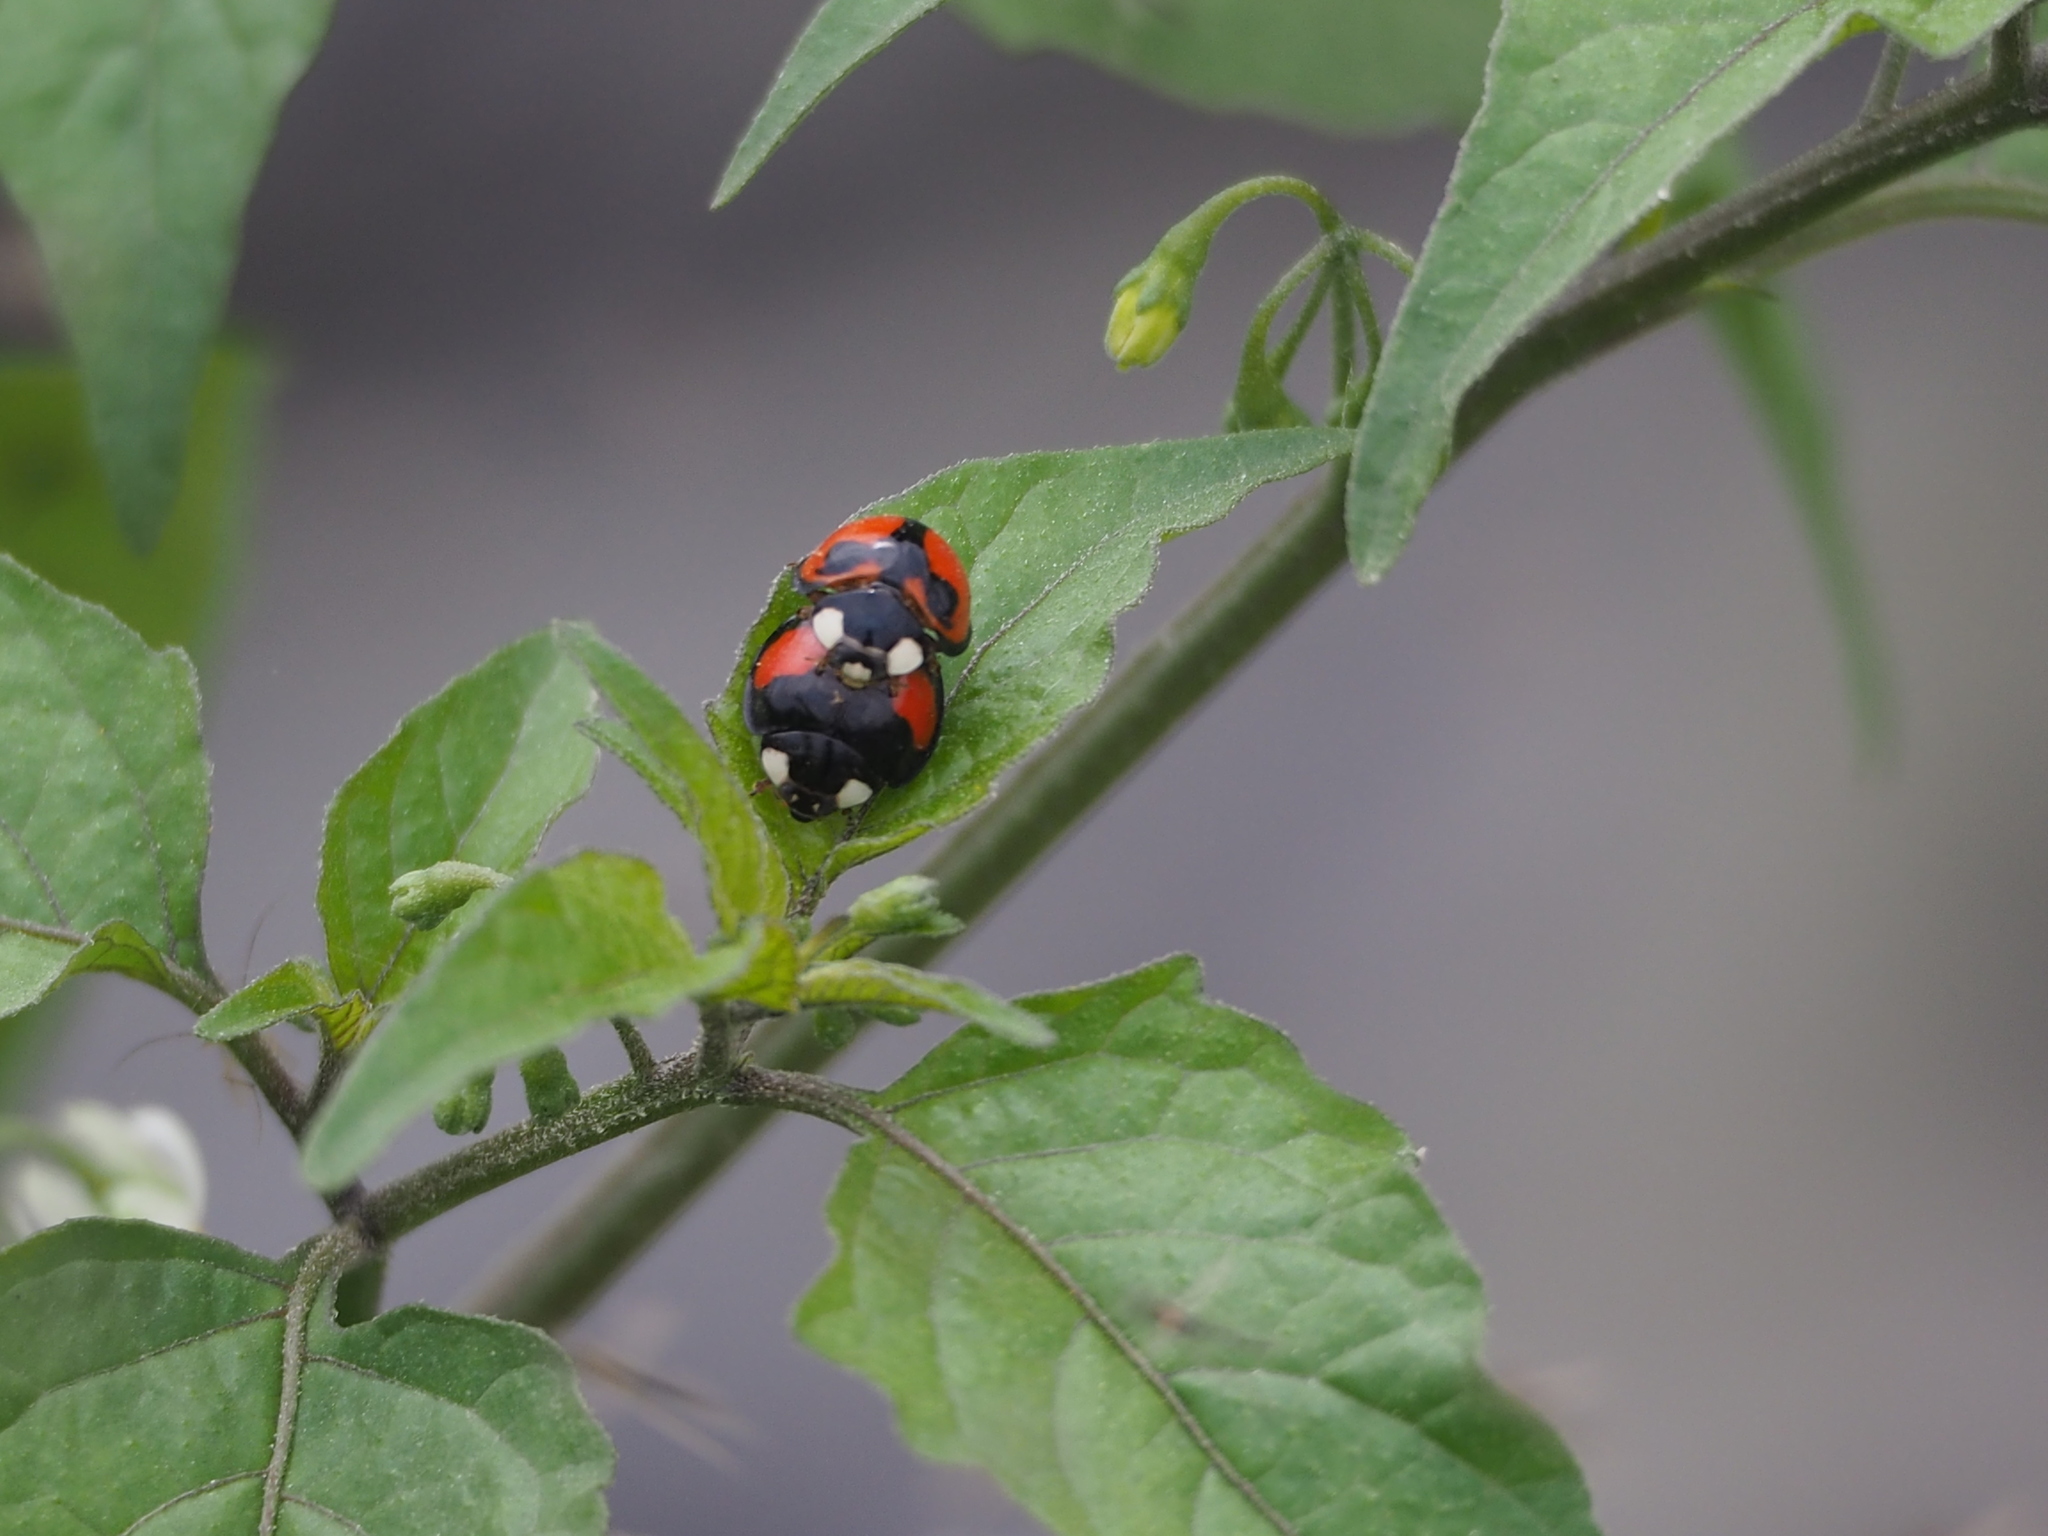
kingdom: Animalia
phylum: Arthropoda
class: Insecta
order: Coleoptera
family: Coccinellidae
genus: Coelophora
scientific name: Coelophora biplagiata
